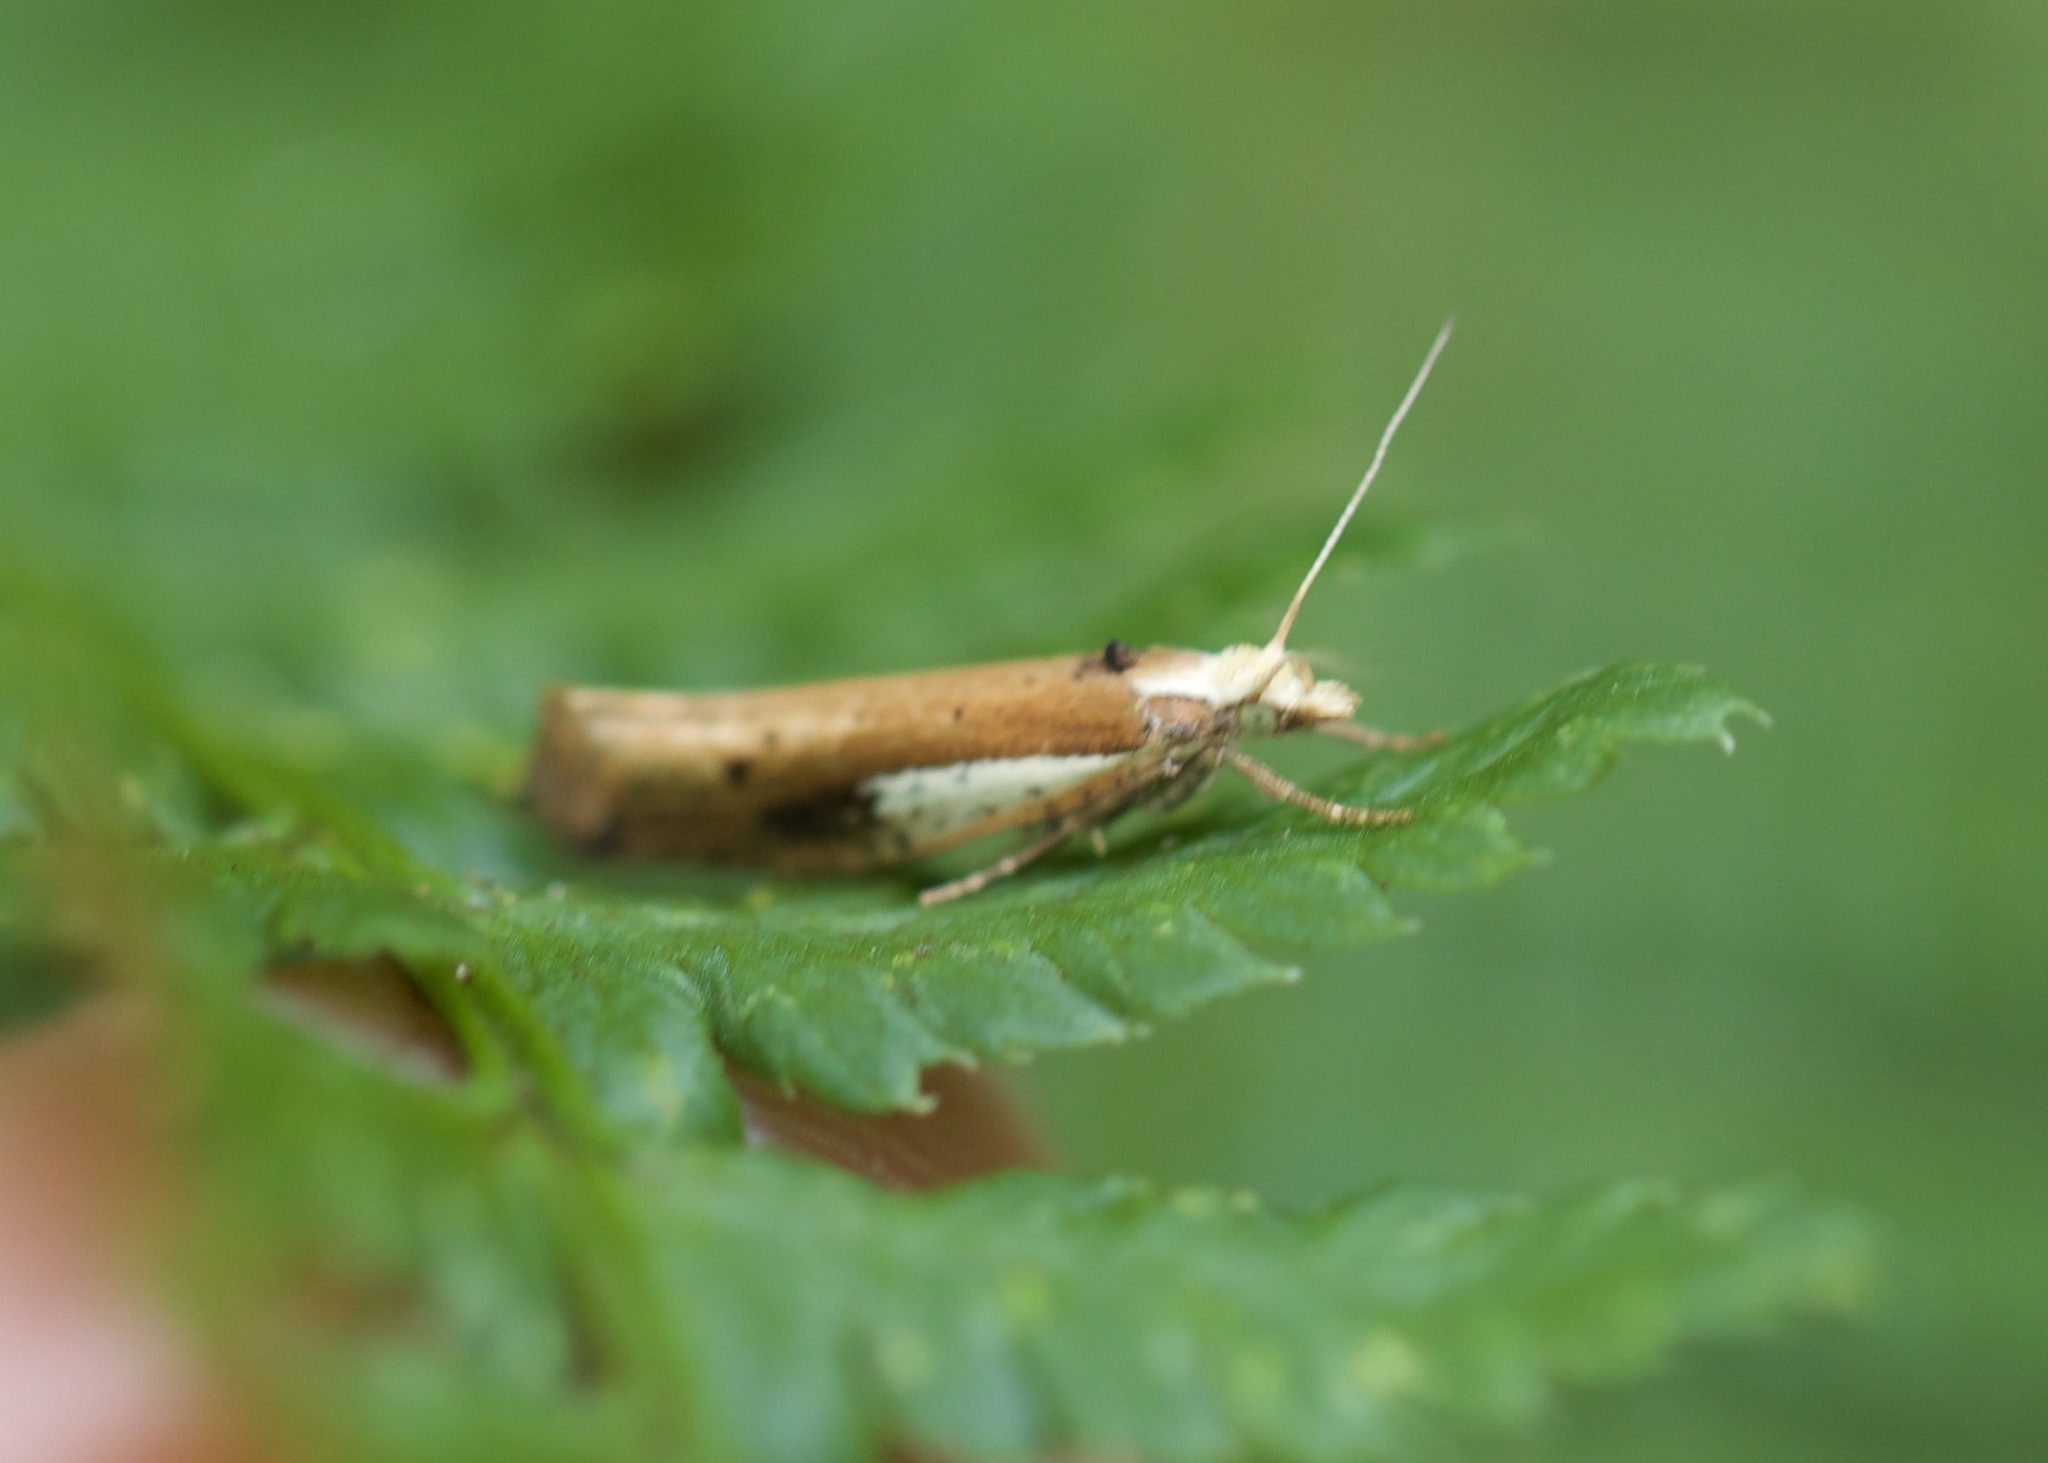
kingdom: Animalia
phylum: Arthropoda
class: Insecta
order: Lepidoptera
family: Ypsolophidae
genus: Ypsolopha
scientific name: Ypsolopha parenthesella
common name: White-shouldered smudge
